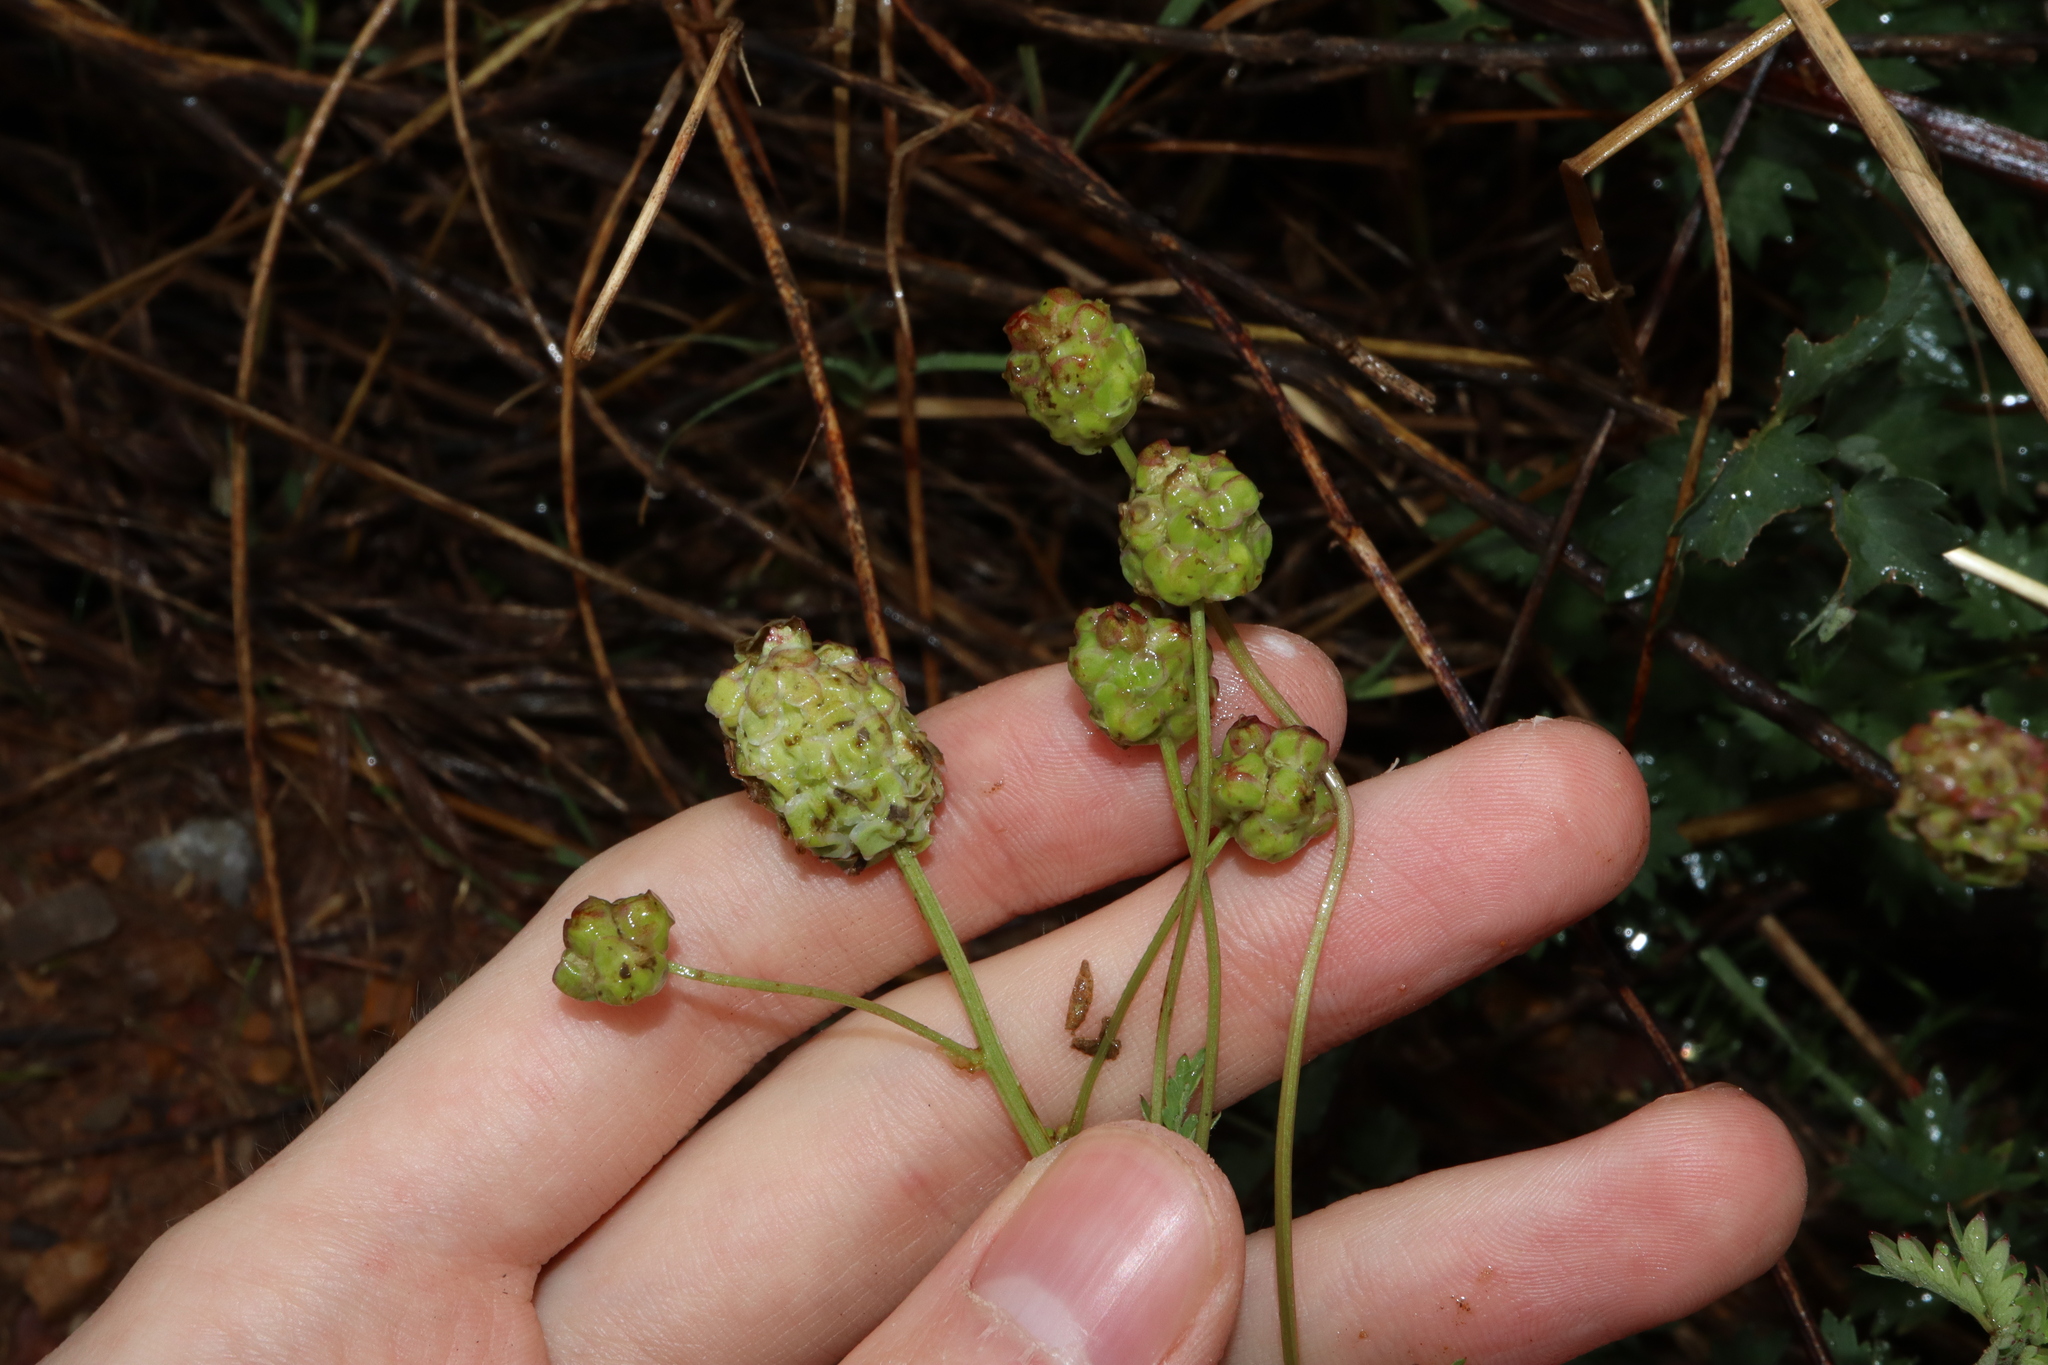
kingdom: Plantae
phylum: Tracheophyta
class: Magnoliopsida
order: Rosales
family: Rosaceae
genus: Poterium
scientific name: Poterium sanguisorba
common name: Salad burnet
